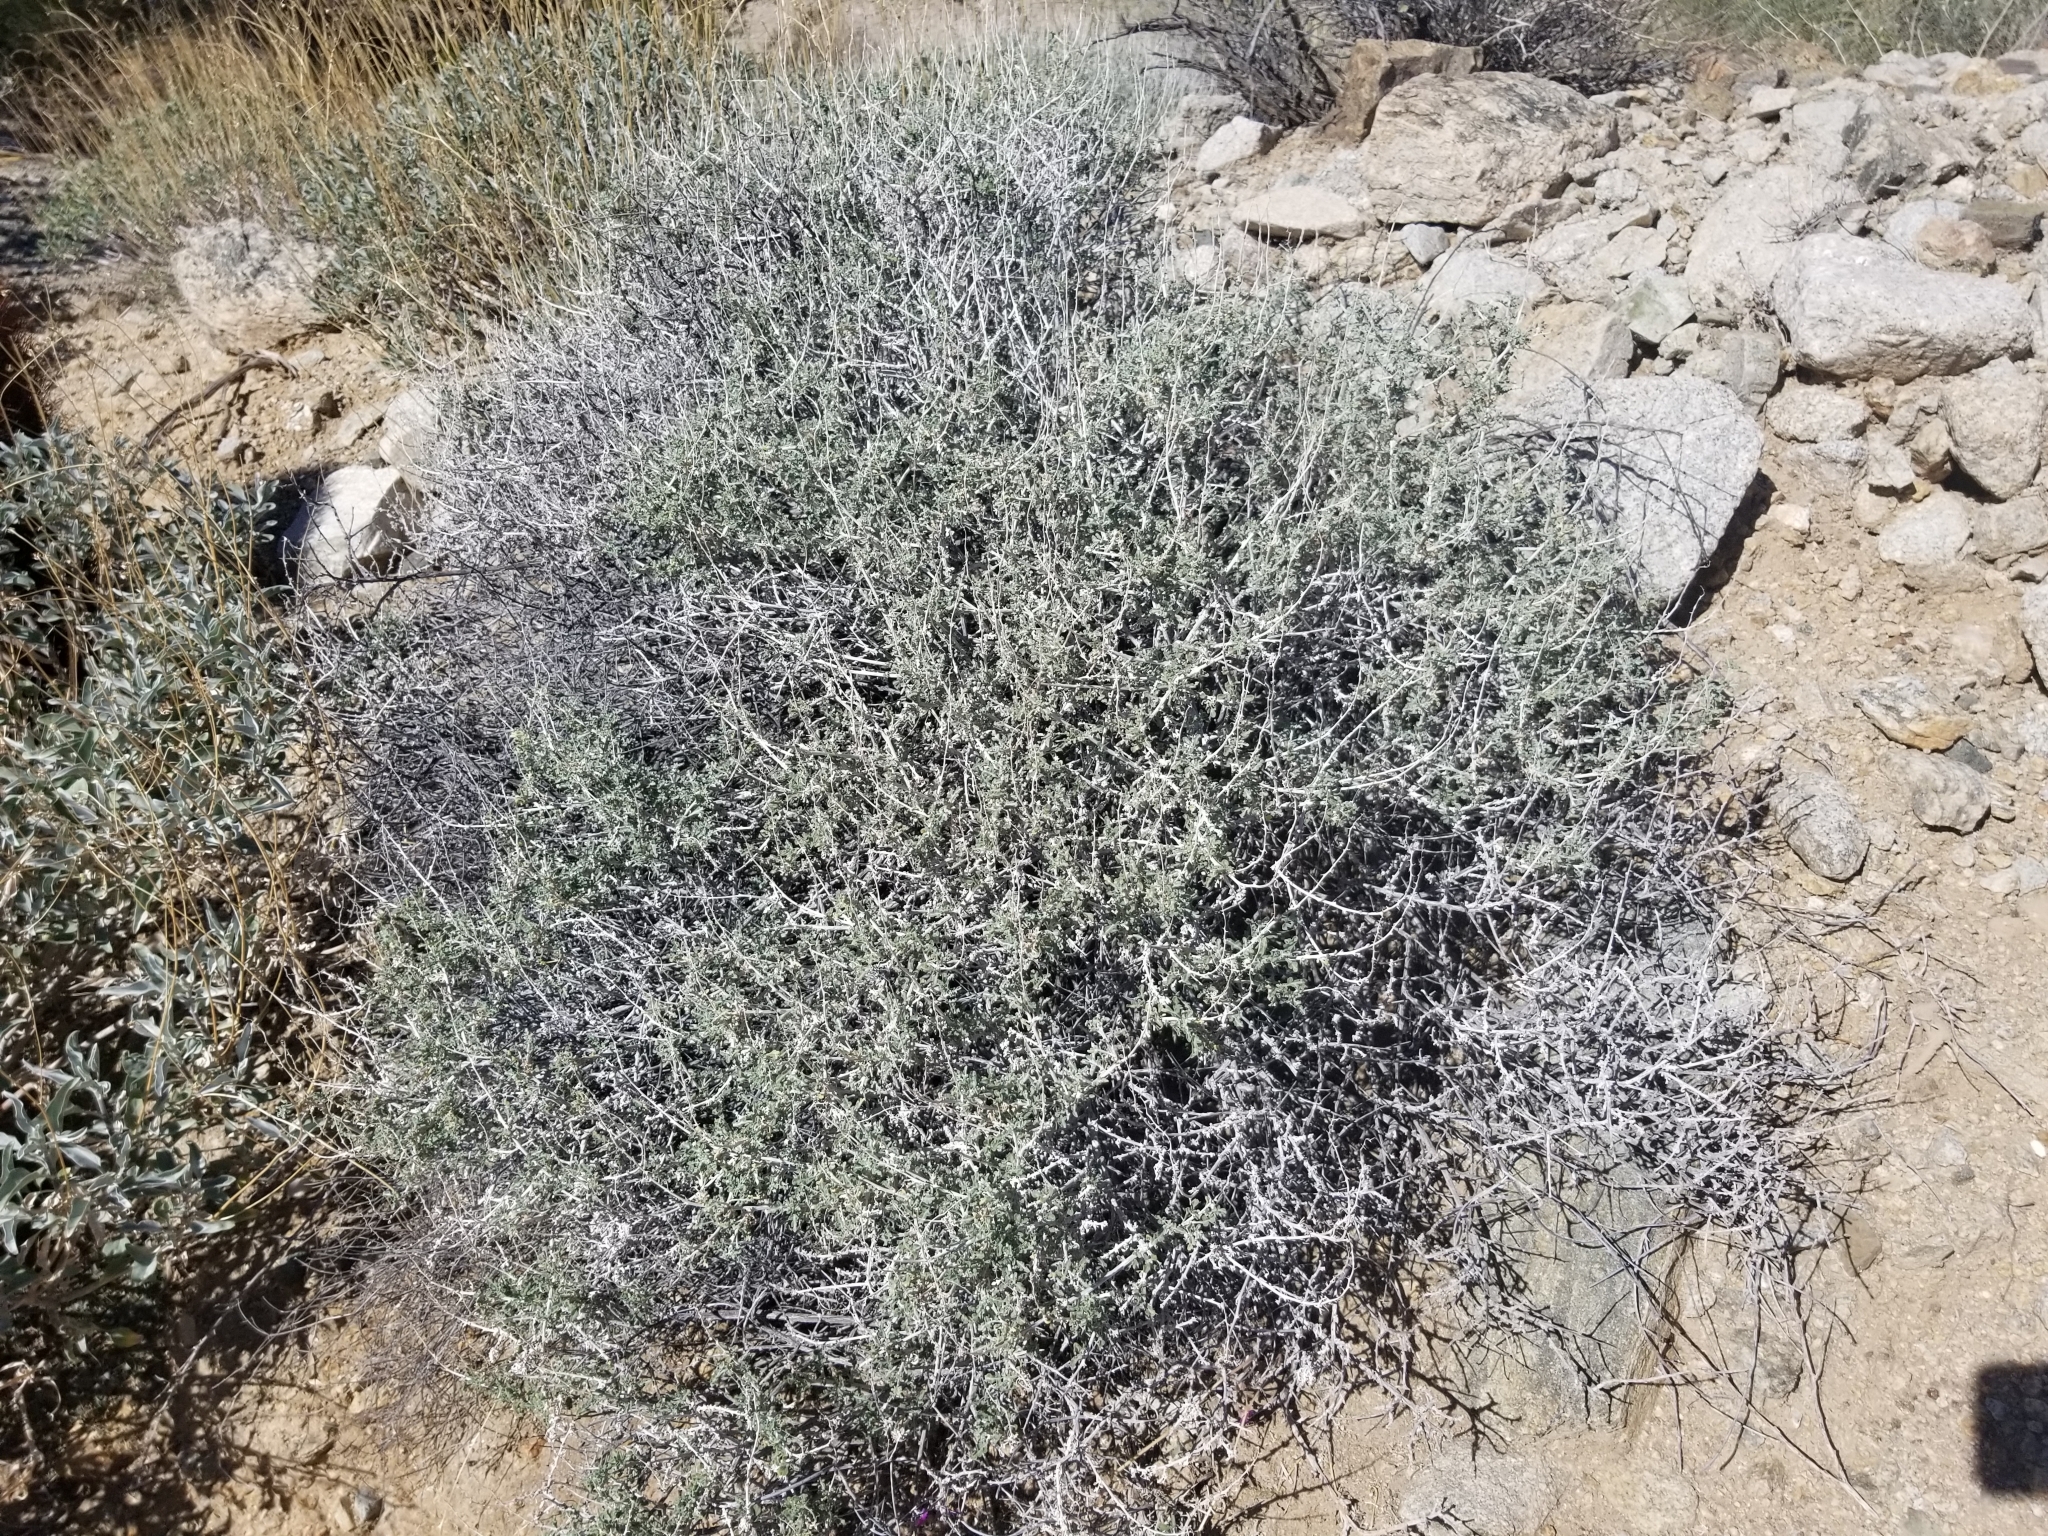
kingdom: Plantae
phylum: Tracheophyta
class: Magnoliopsida
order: Asterales
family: Asteraceae
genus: Ambrosia
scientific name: Ambrosia dumosa
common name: Bur-sage
